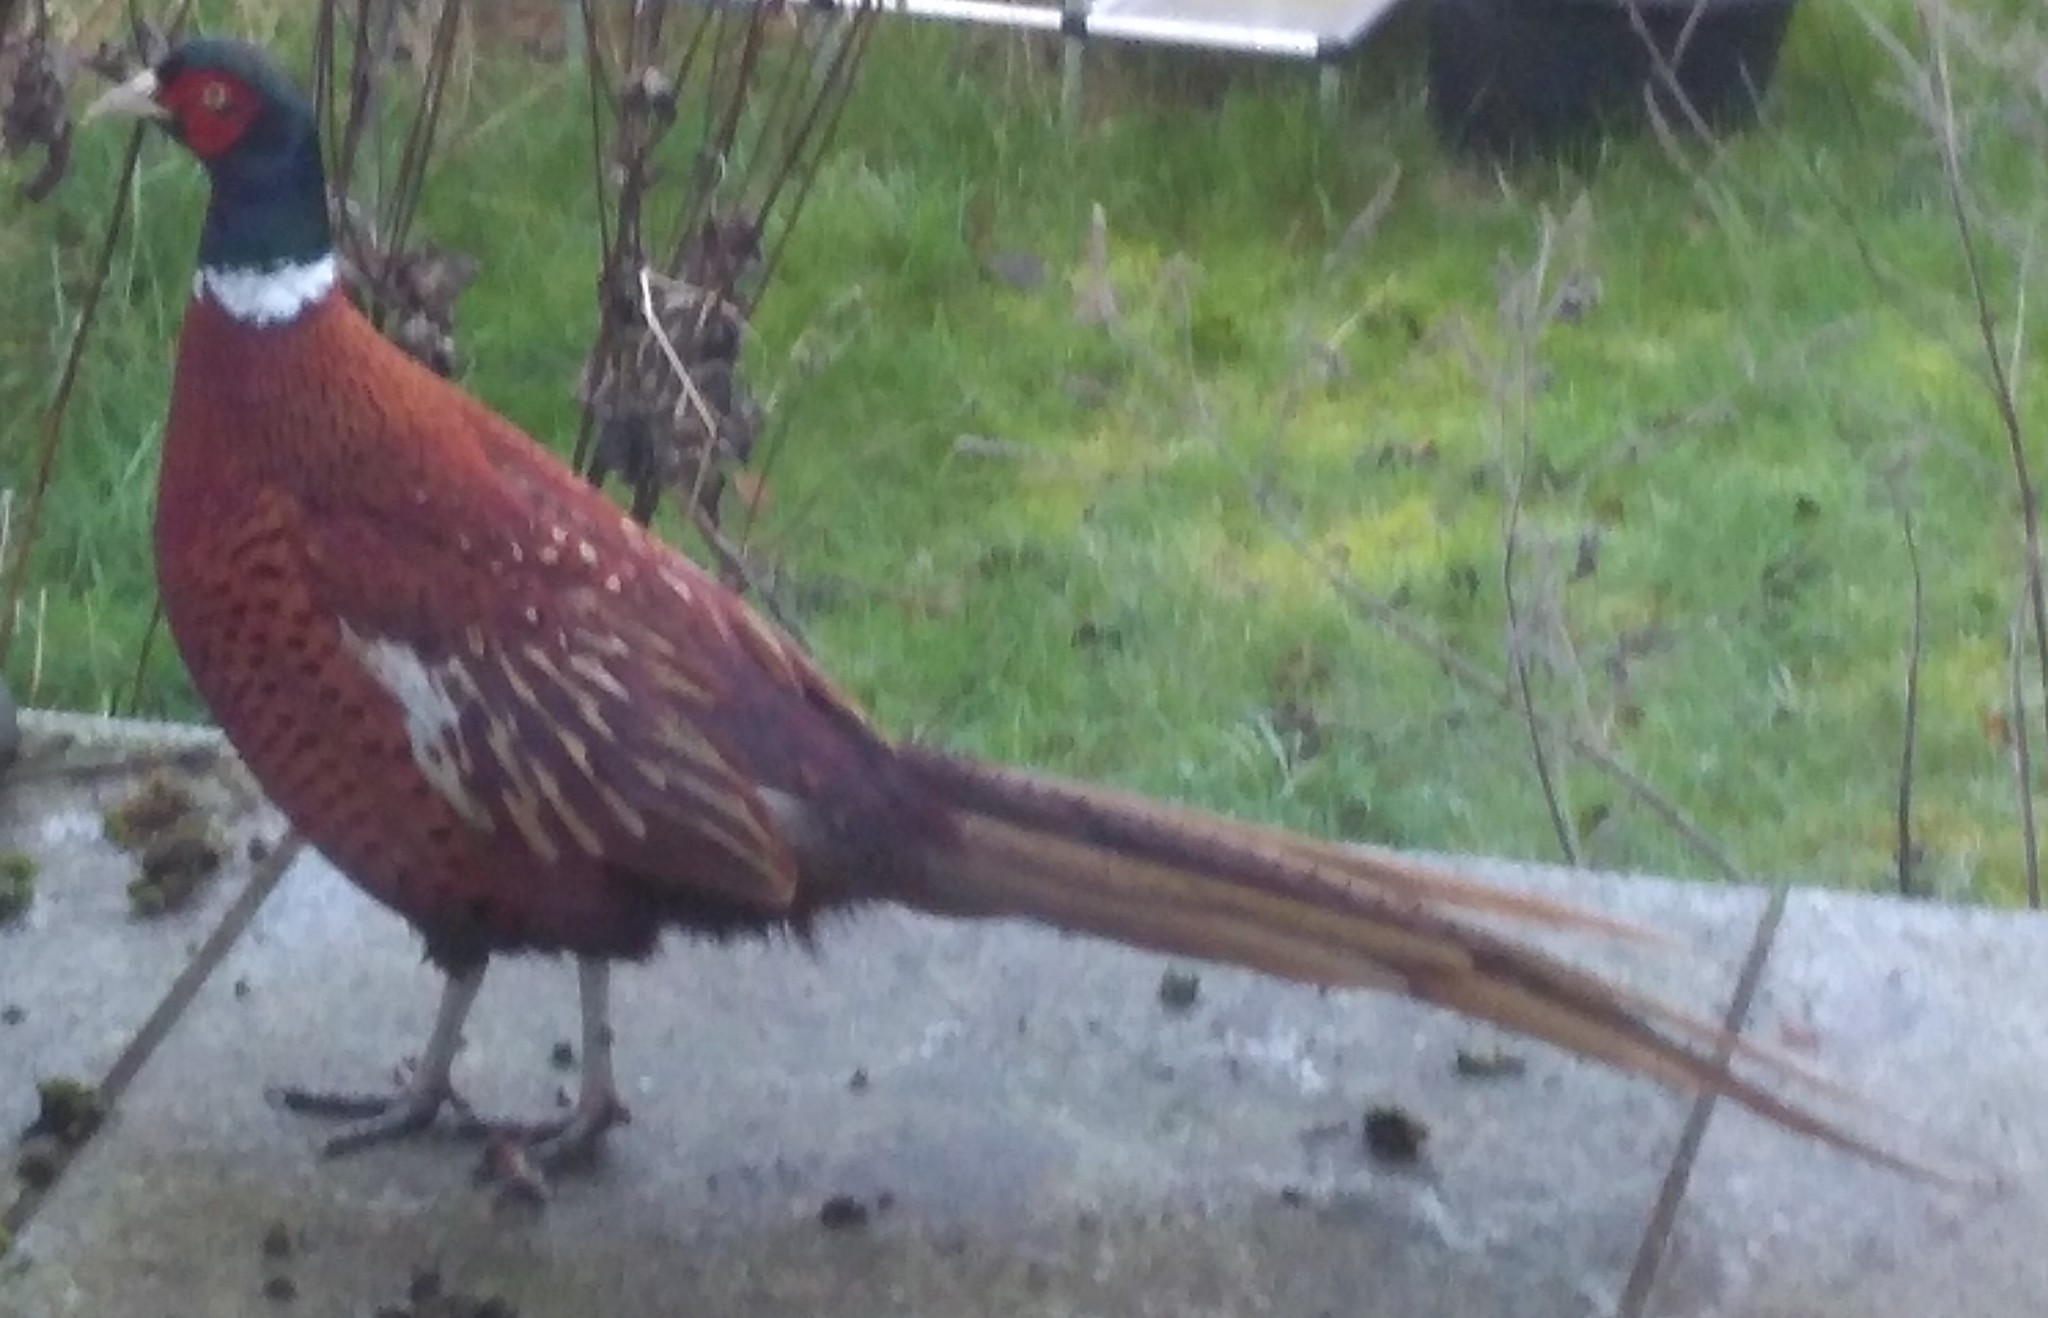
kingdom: Animalia
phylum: Chordata
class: Aves
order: Galliformes
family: Phasianidae
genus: Phasianus
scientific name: Phasianus colchicus
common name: Common pheasant
